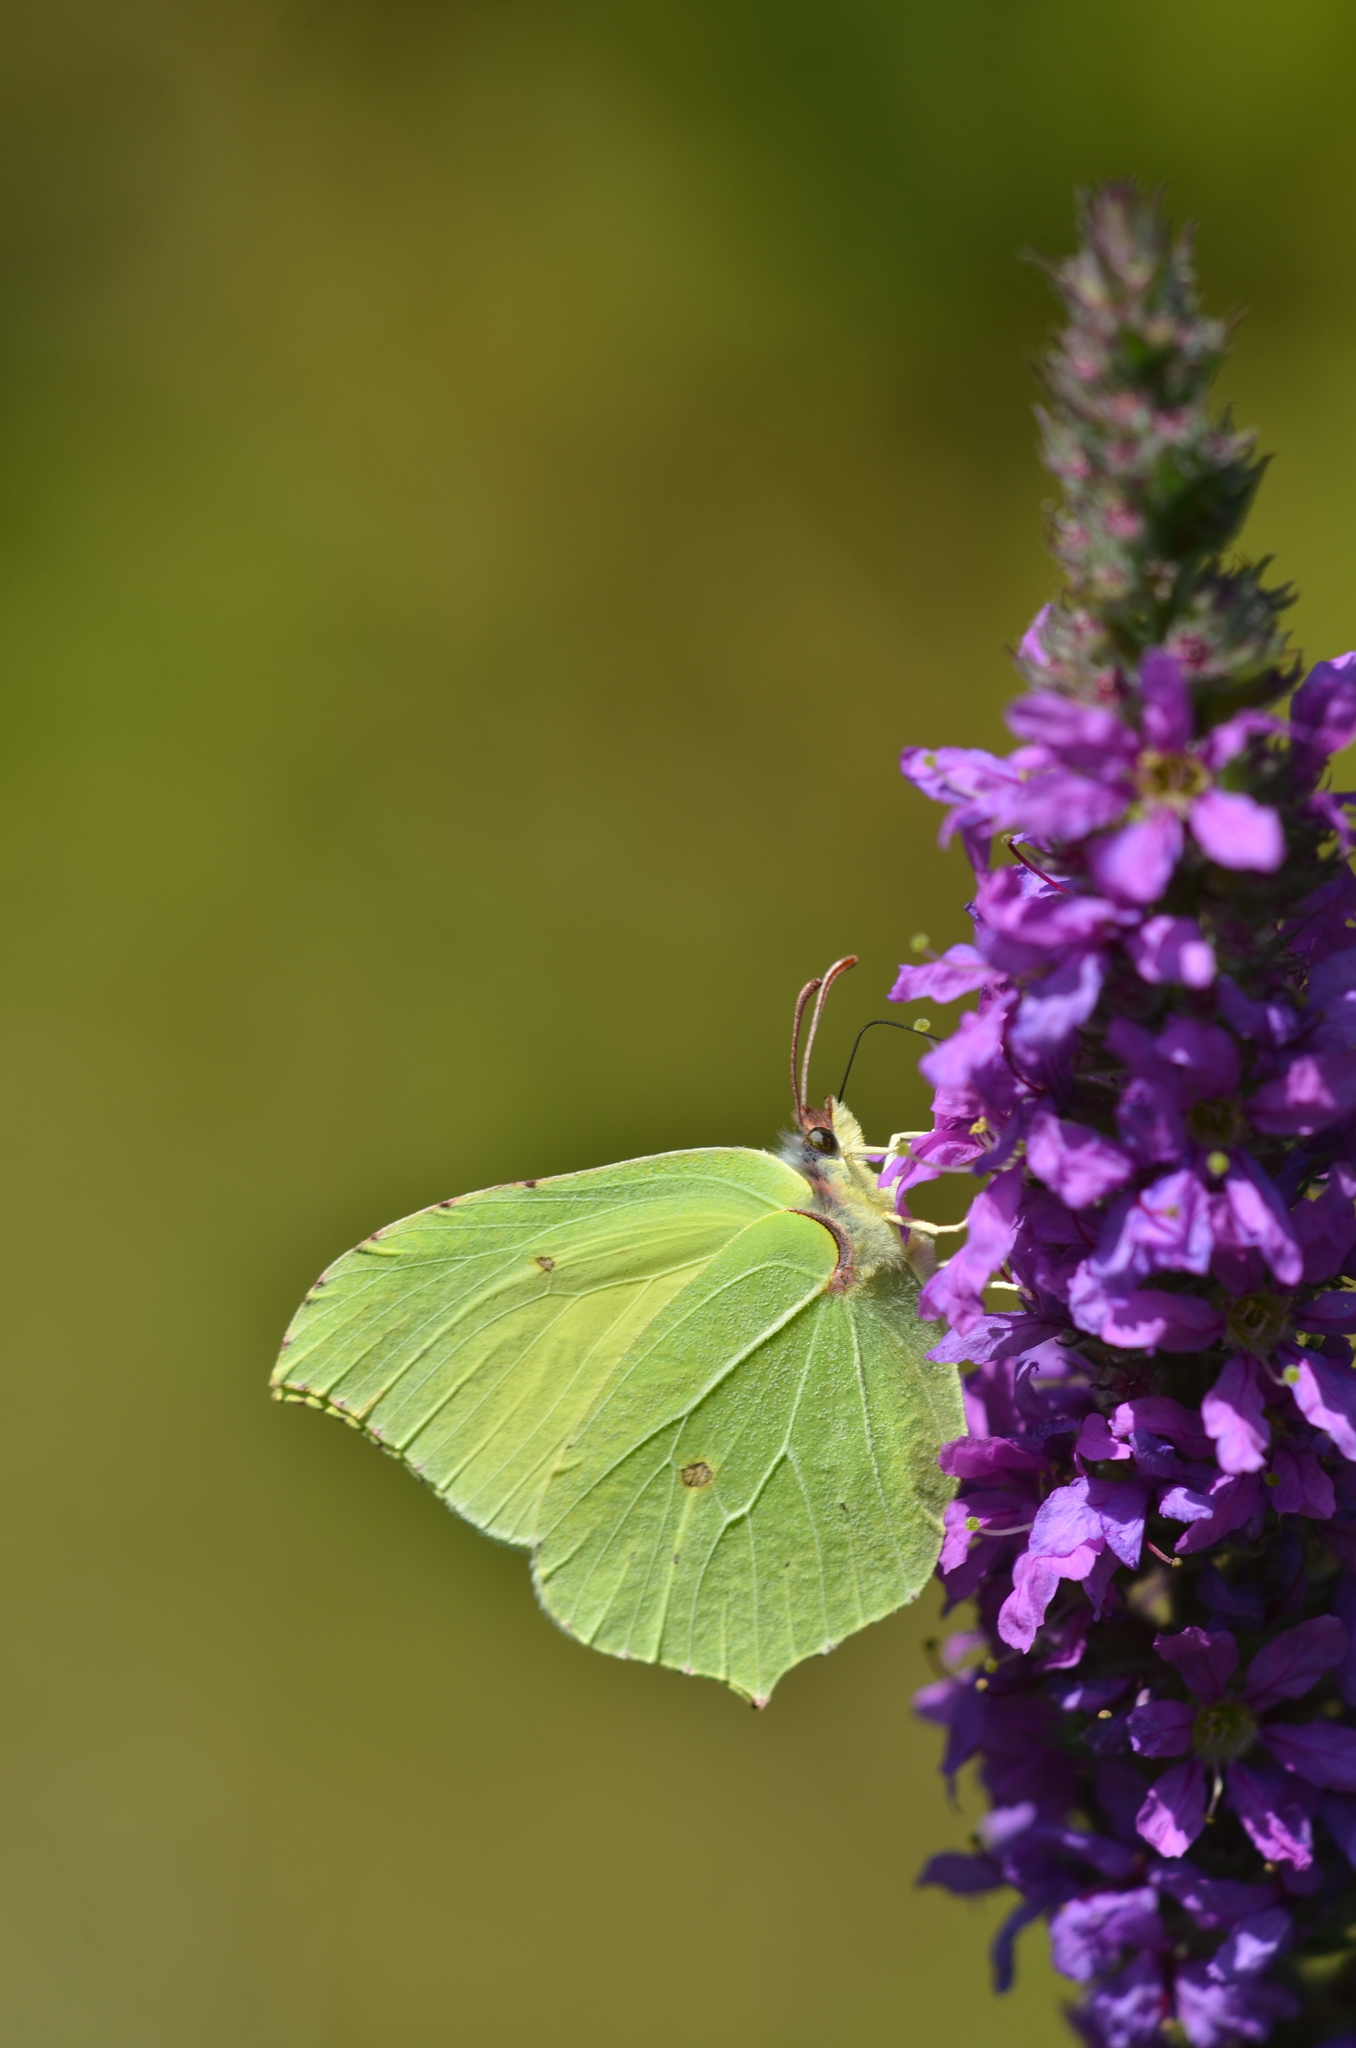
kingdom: Animalia
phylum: Arthropoda
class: Insecta
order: Lepidoptera
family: Pieridae
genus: Gonepteryx
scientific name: Gonepteryx rhamni
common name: Brimstone
